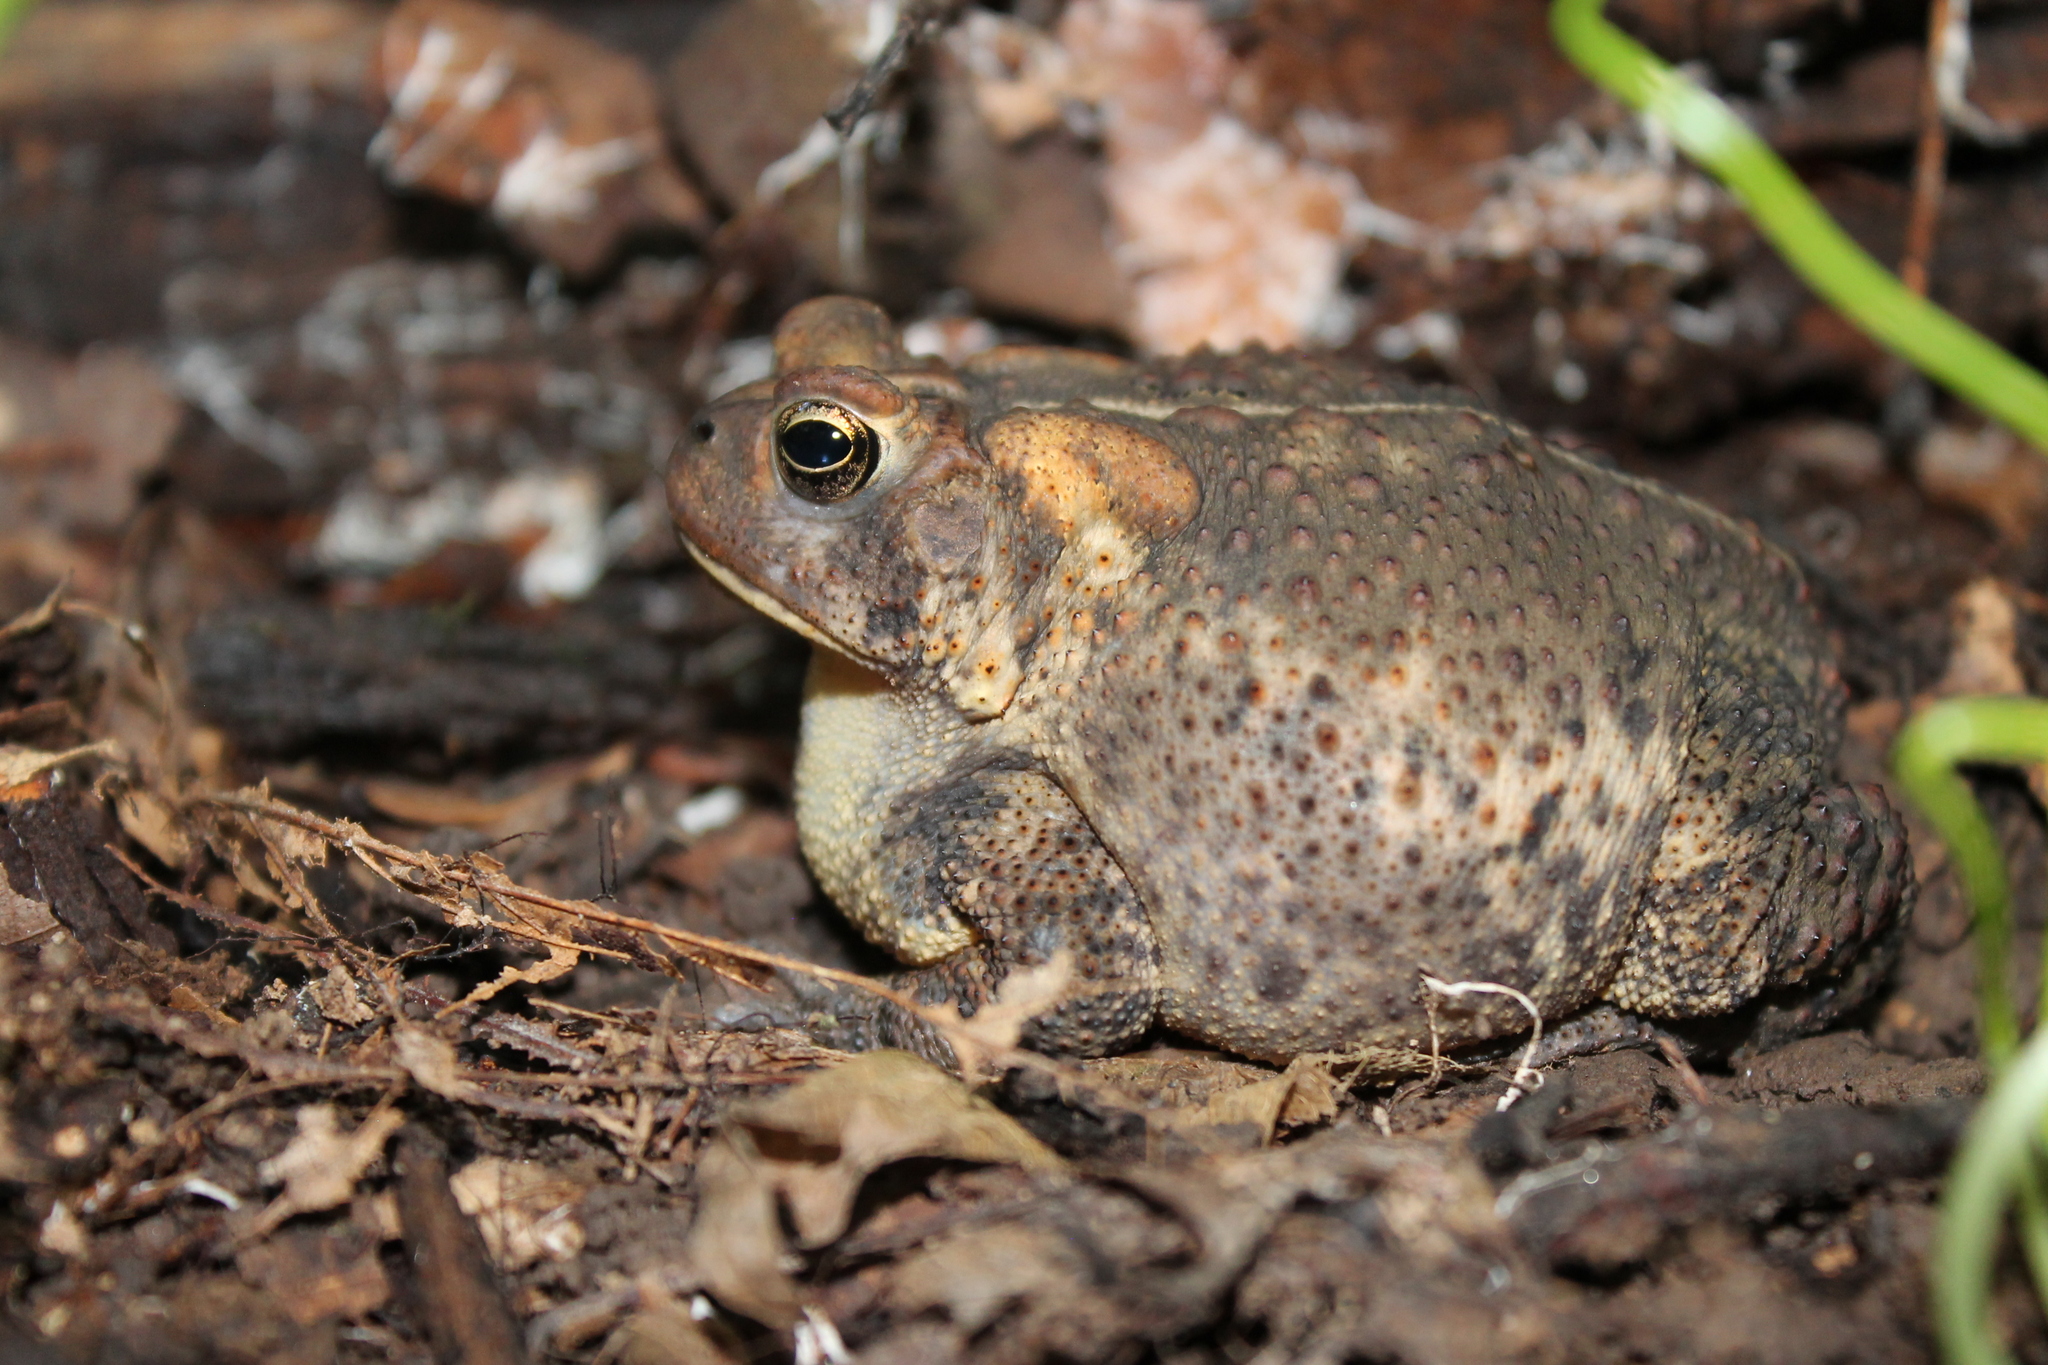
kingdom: Animalia
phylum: Chordata
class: Amphibia
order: Anura
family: Bufonidae
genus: Anaxyrus
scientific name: Anaxyrus americanus
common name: American toad
